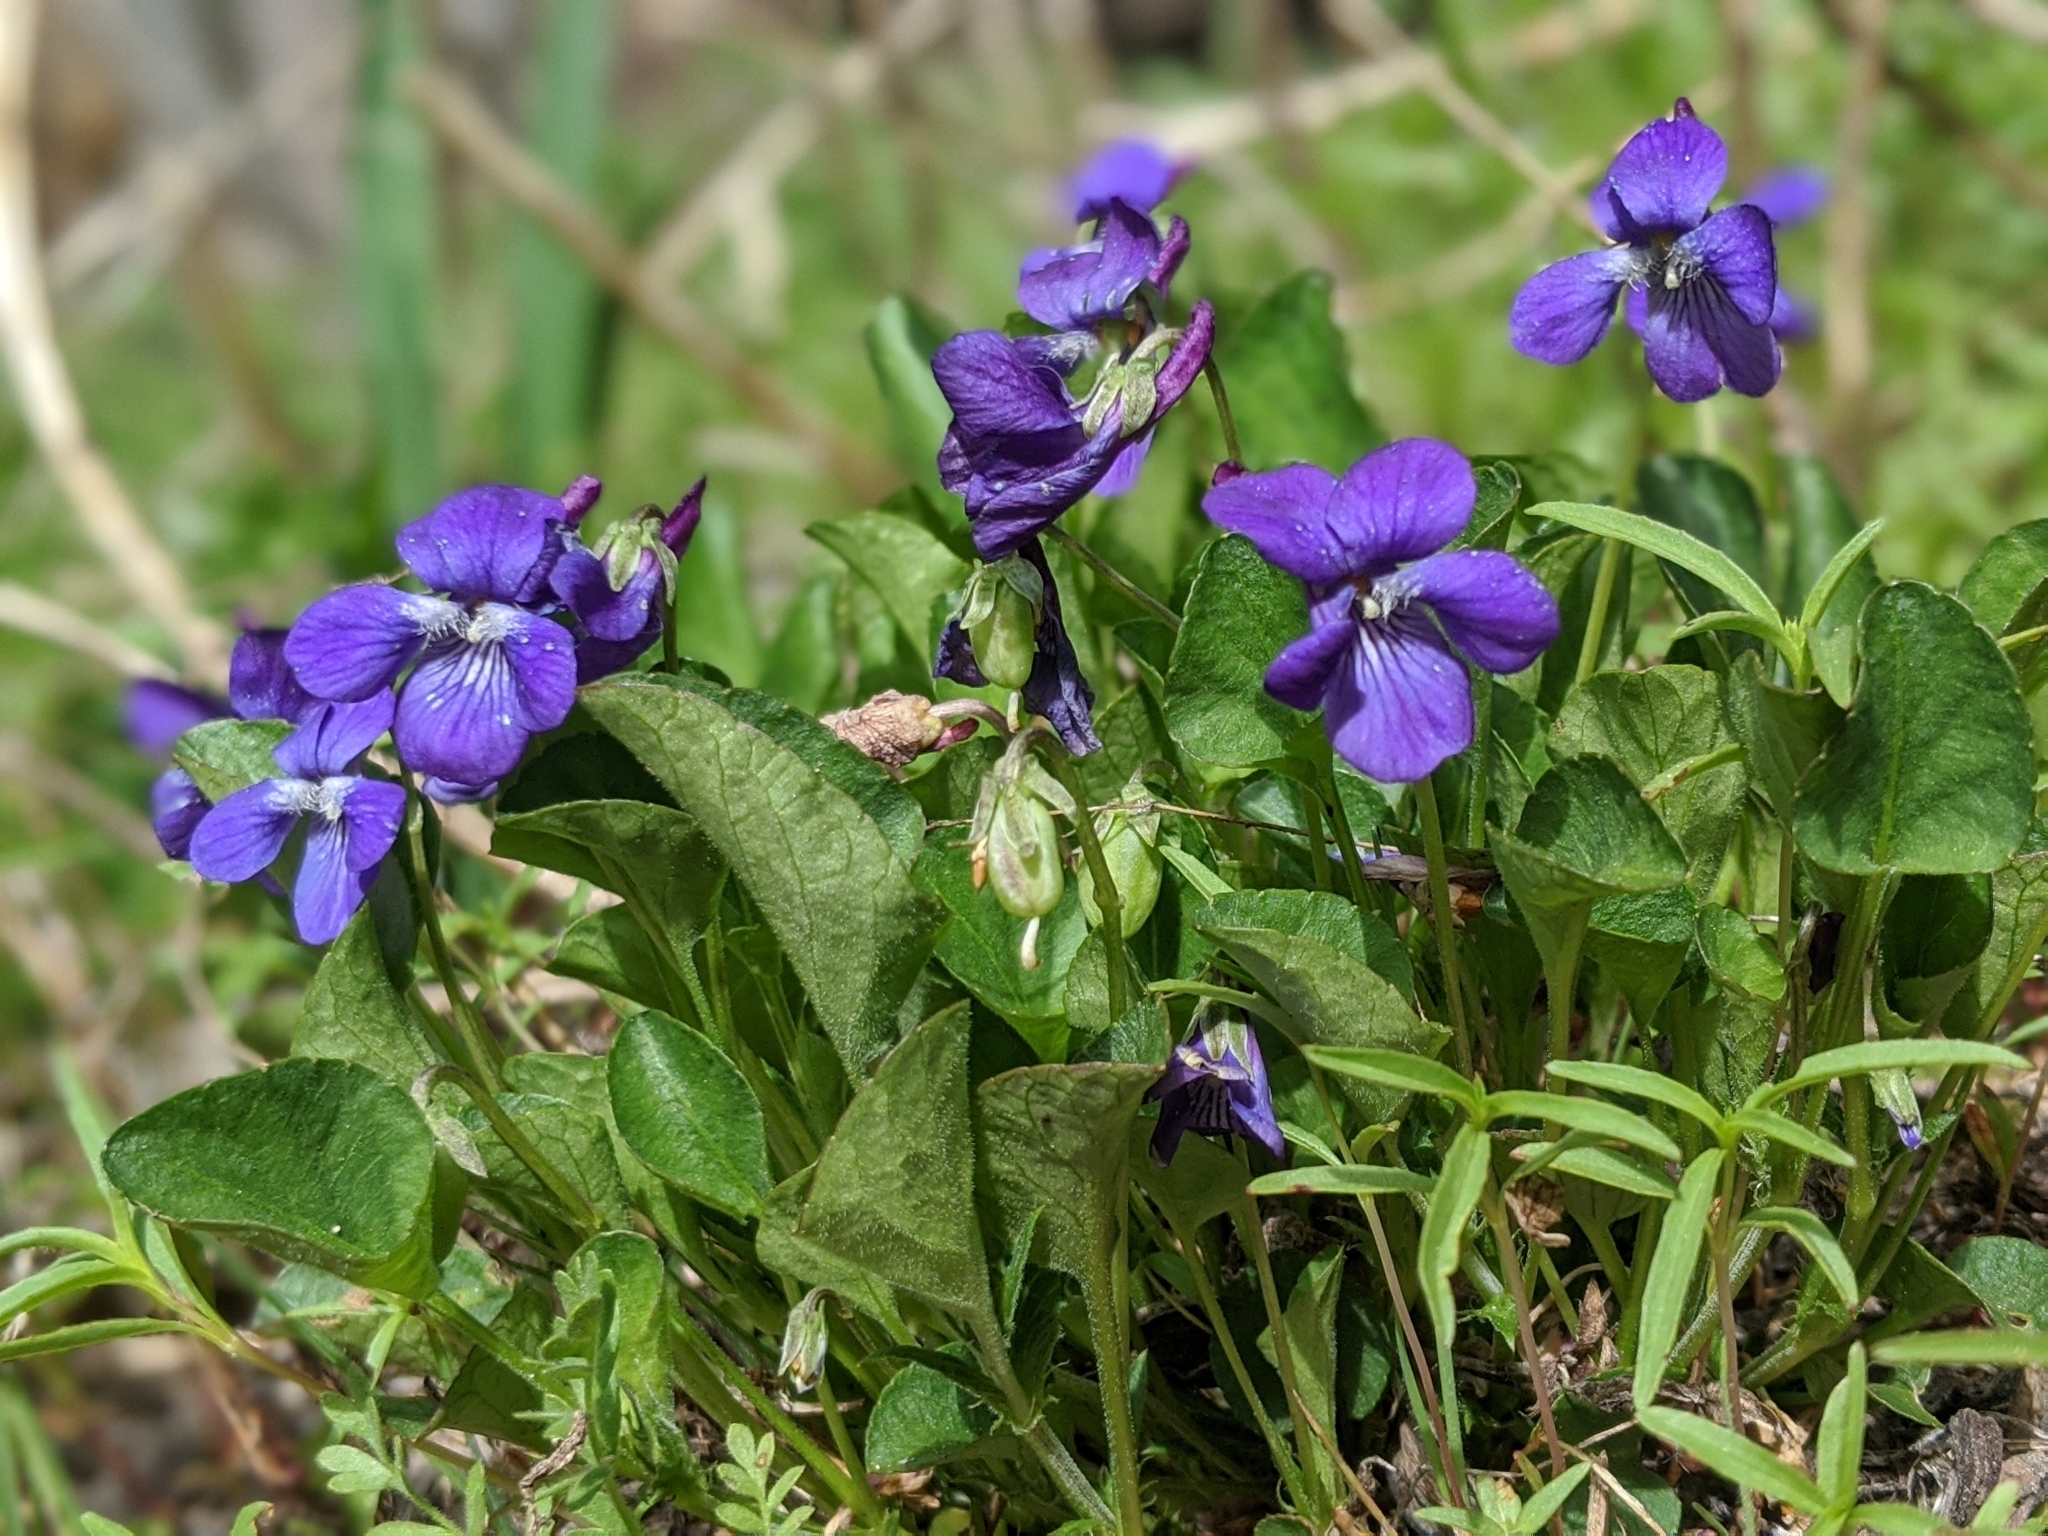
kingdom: Plantae
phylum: Tracheophyta
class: Magnoliopsida
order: Malpighiales
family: Violaceae
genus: Viola
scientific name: Viola adunca
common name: Sand violet
